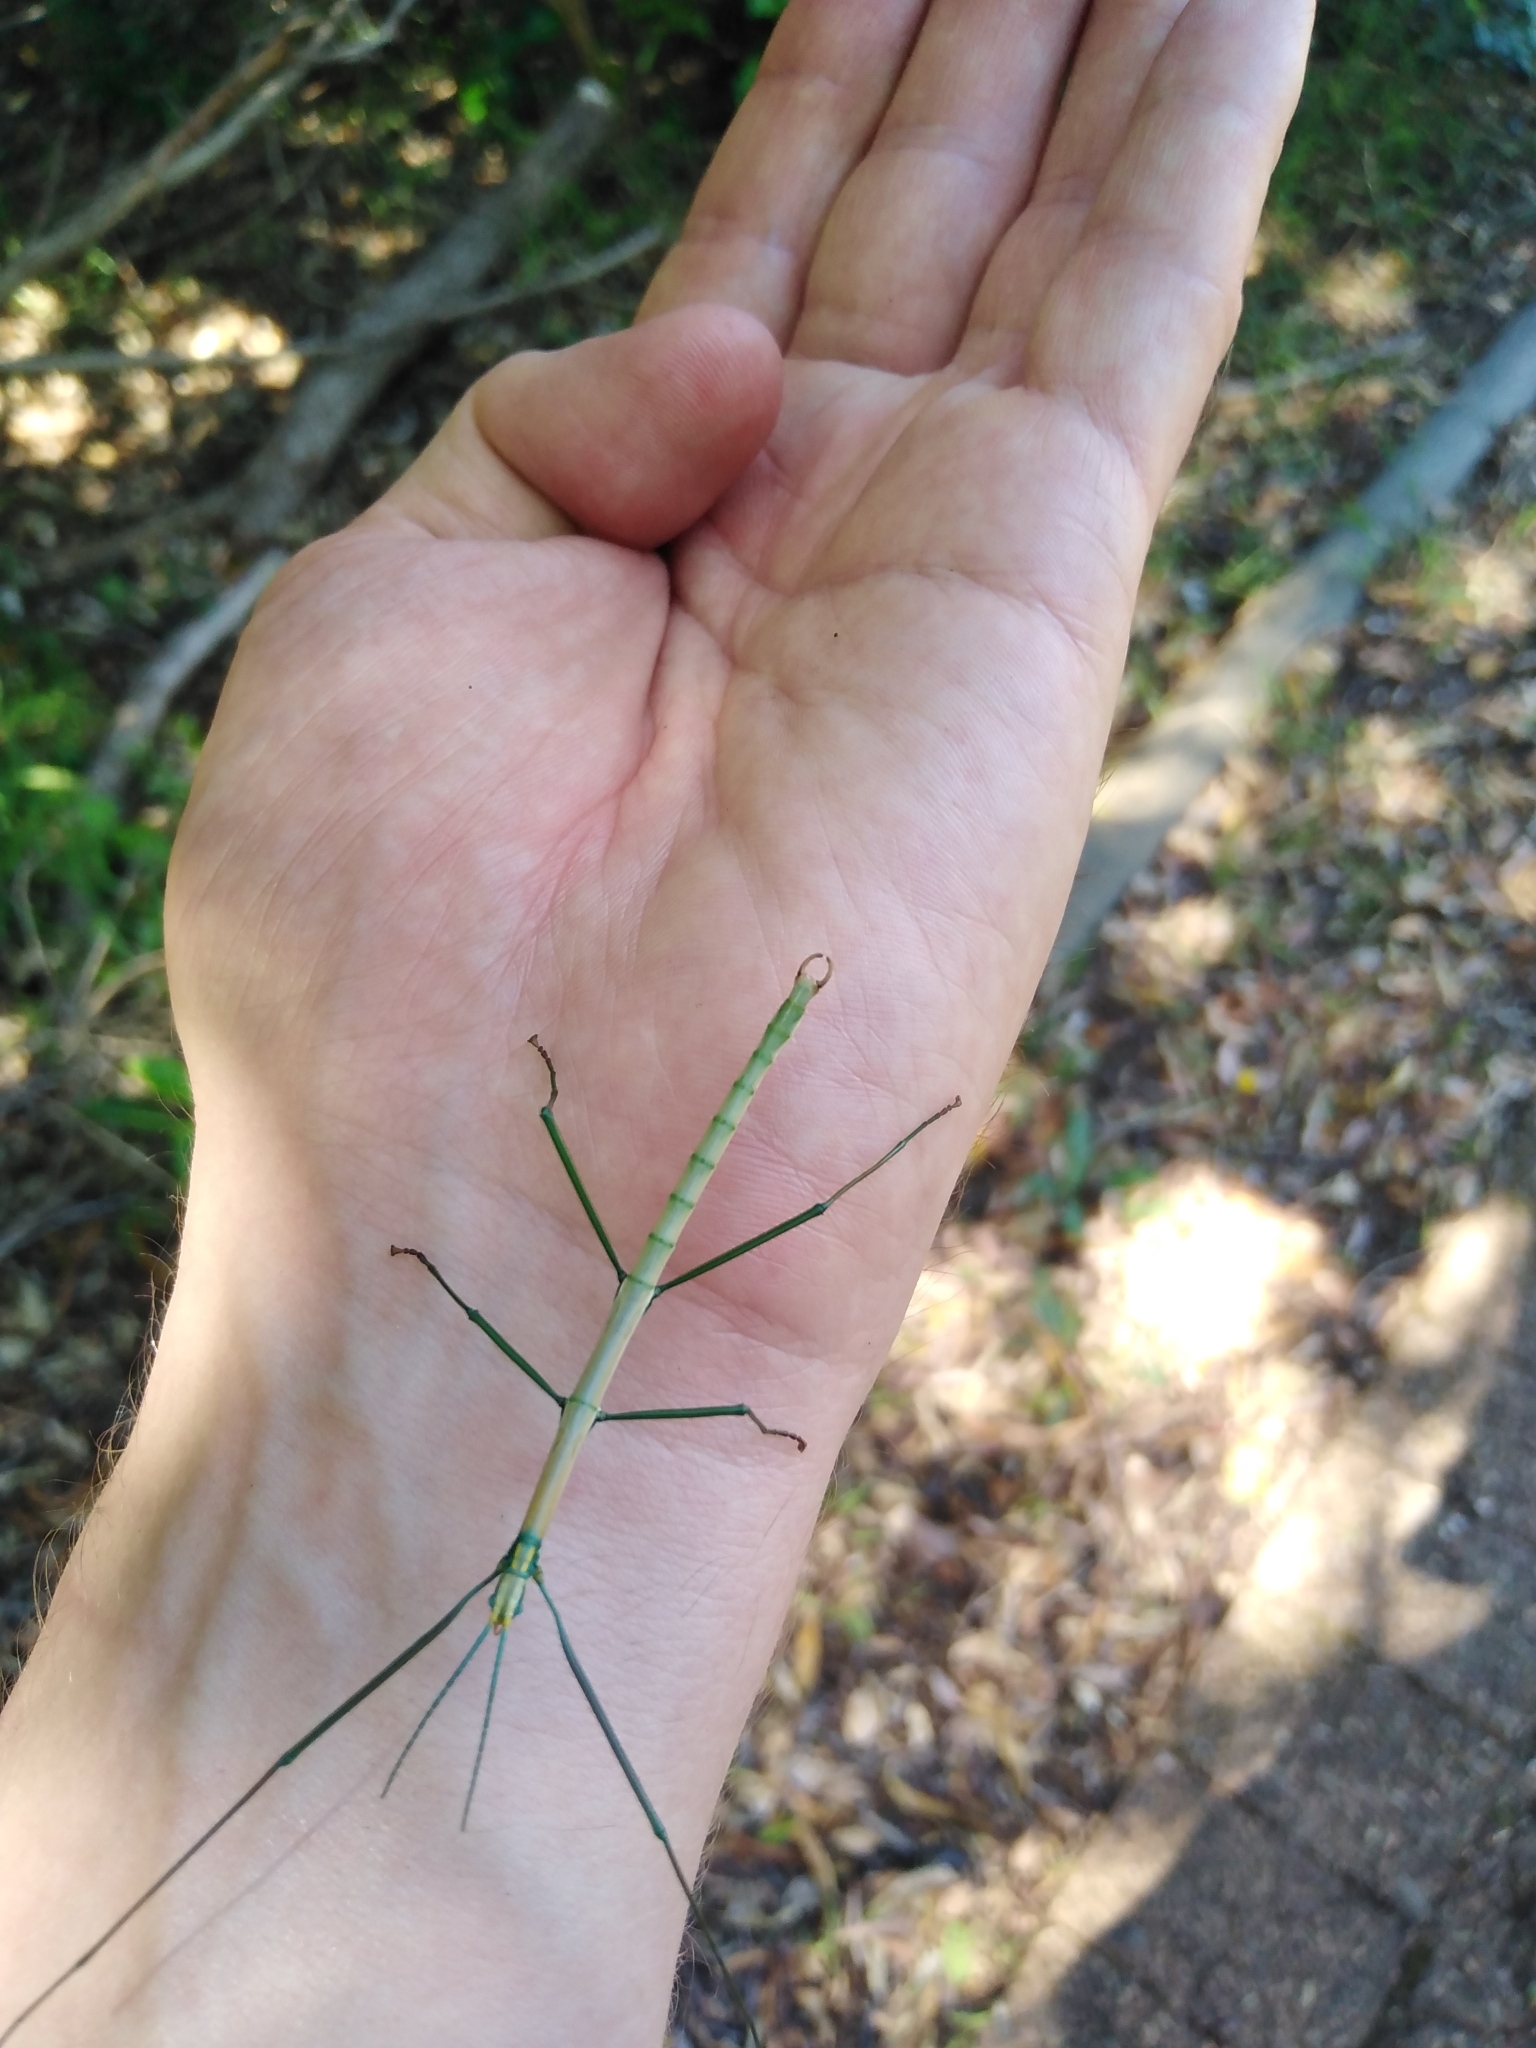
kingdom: Animalia
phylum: Arthropoda
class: Insecta
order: Phasmida
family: Bacillidae
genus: Macynia
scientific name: Macynia labiata
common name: Thunberg's stick insect
